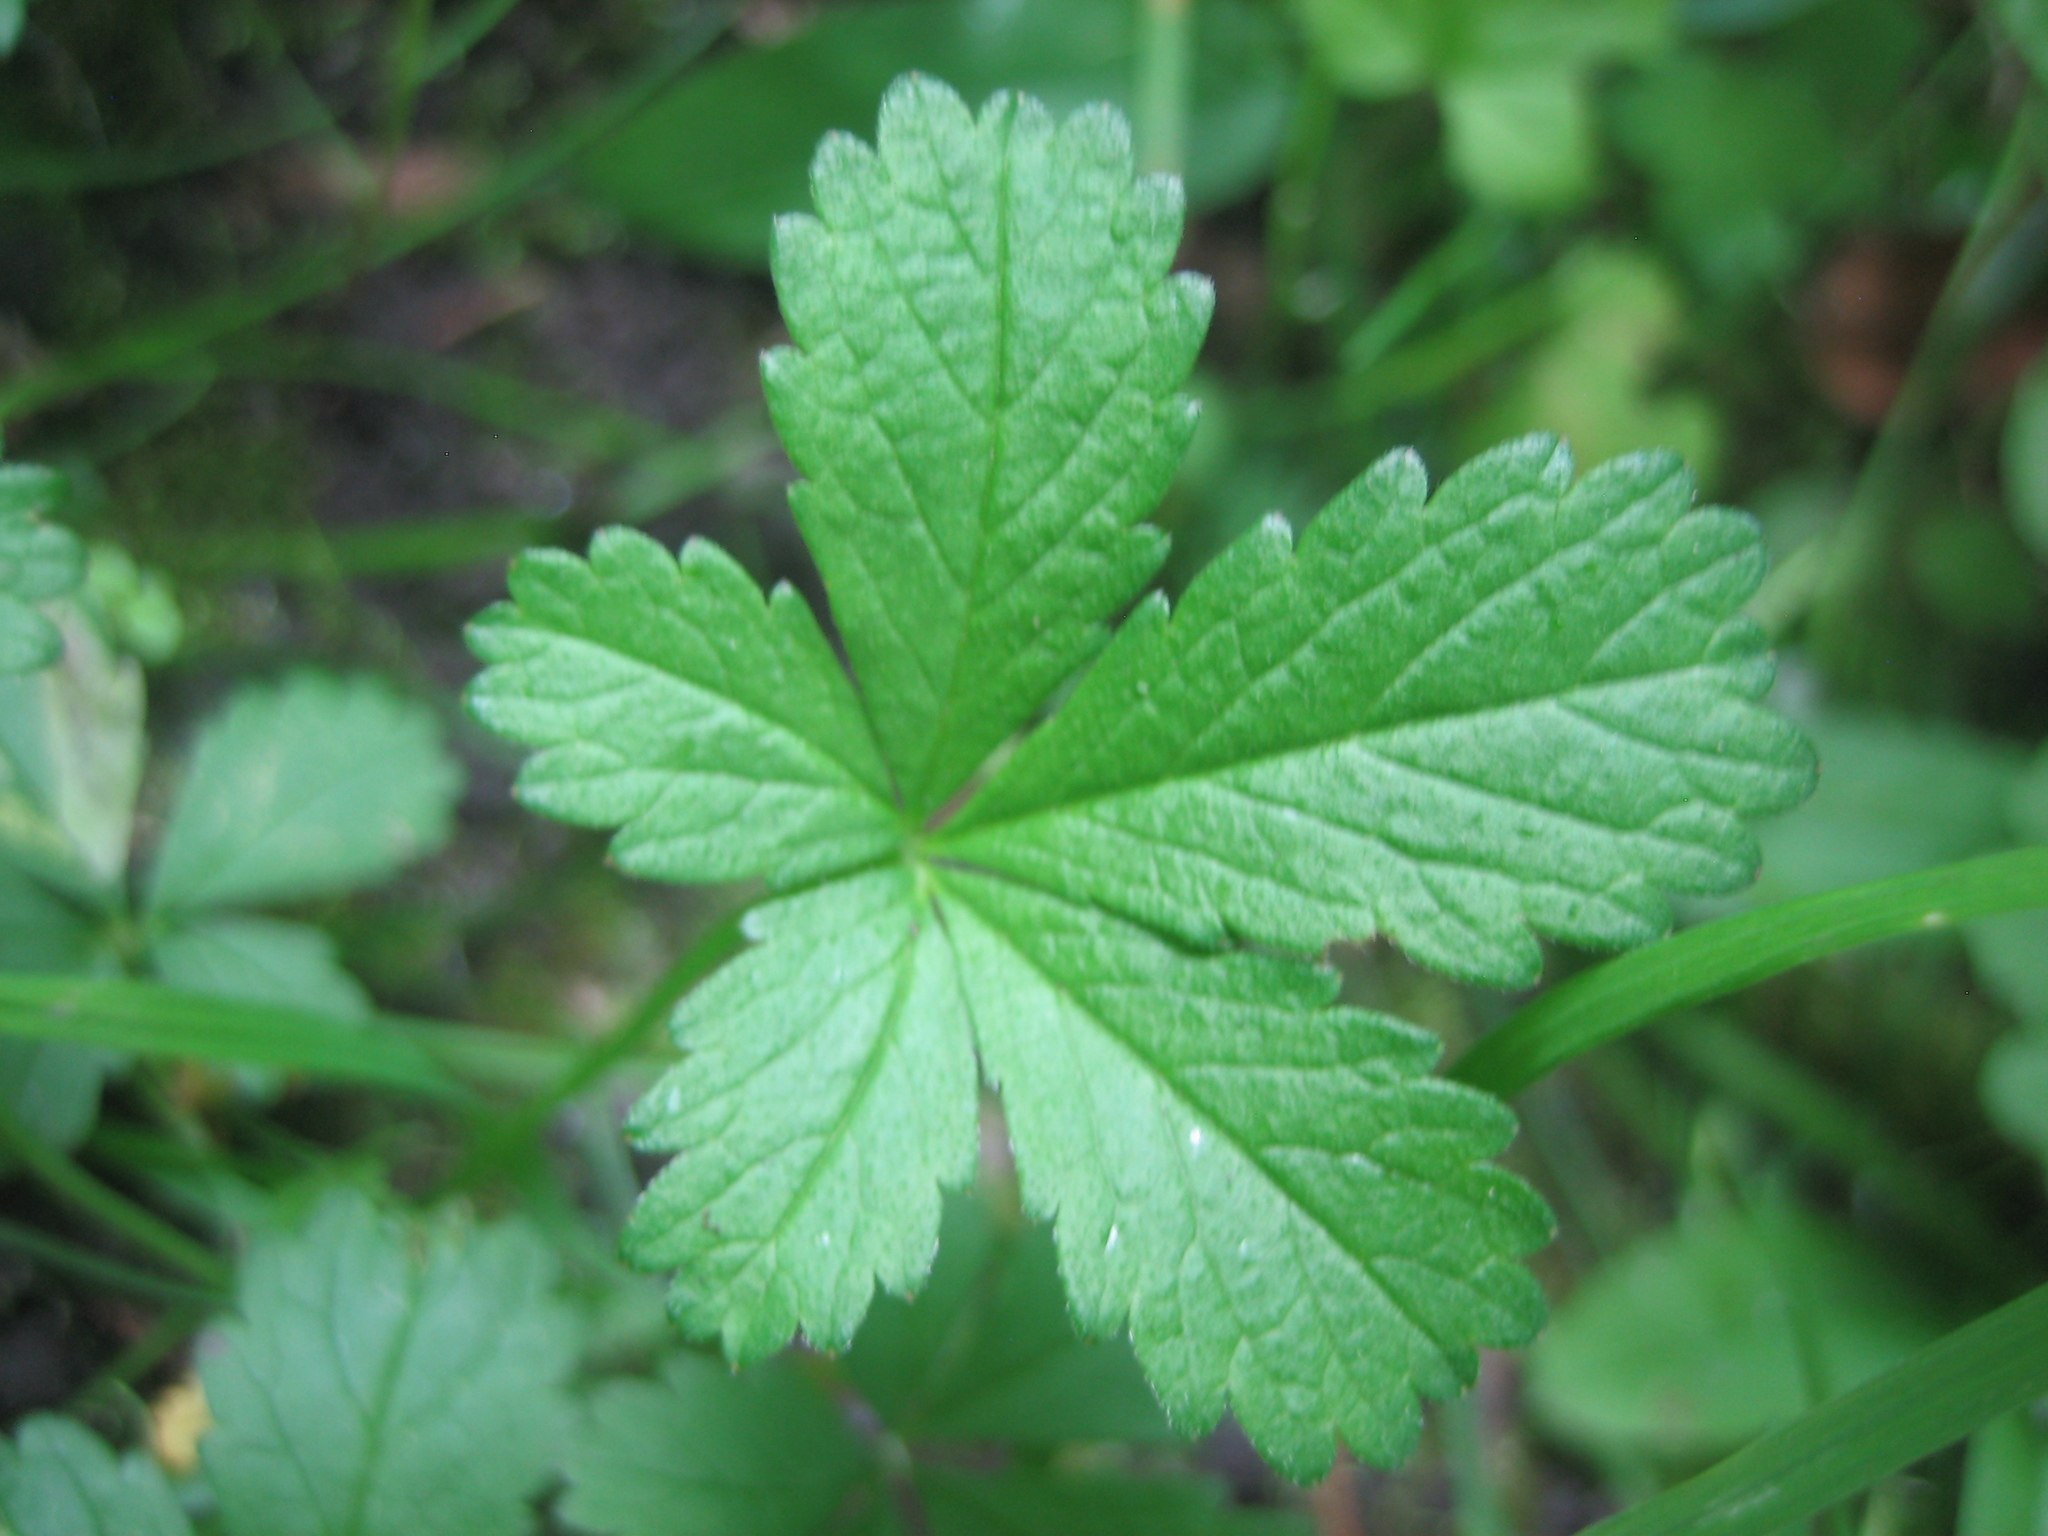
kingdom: Plantae
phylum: Tracheophyta
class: Magnoliopsida
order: Rosales
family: Rosaceae
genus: Potentilla
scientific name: Potentilla reptans
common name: Creeping cinquefoil
